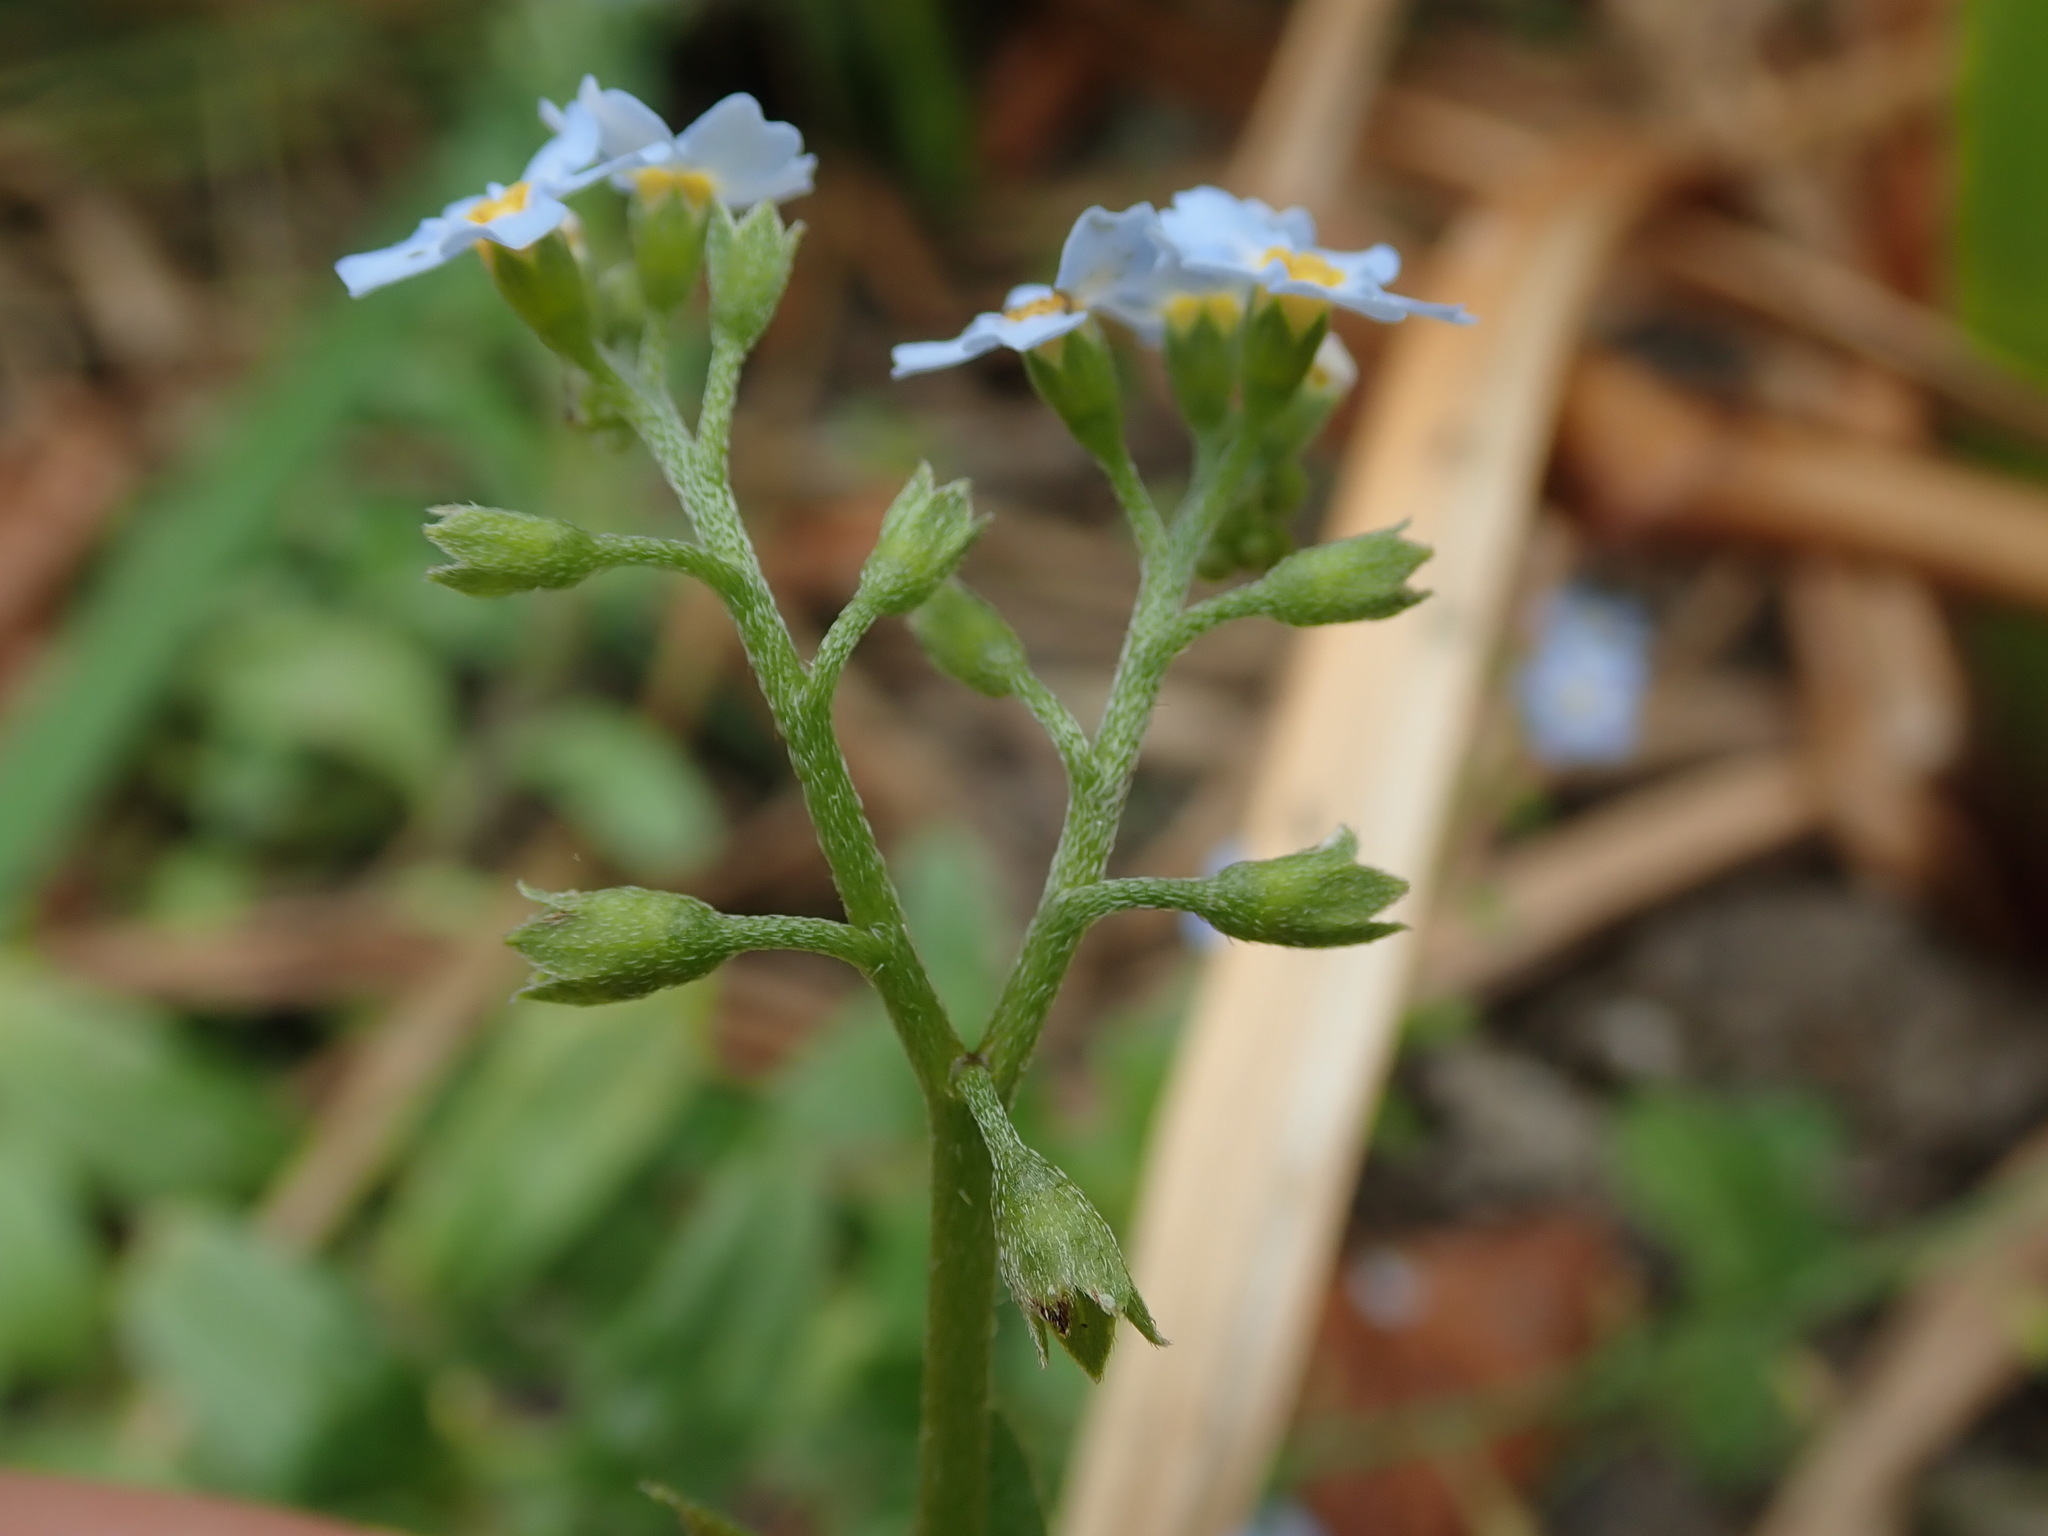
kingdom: Plantae
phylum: Tracheophyta
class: Magnoliopsida
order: Boraginales
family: Boraginaceae
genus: Myosotis
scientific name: Myosotis scorpioides
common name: Water forget-me-not
